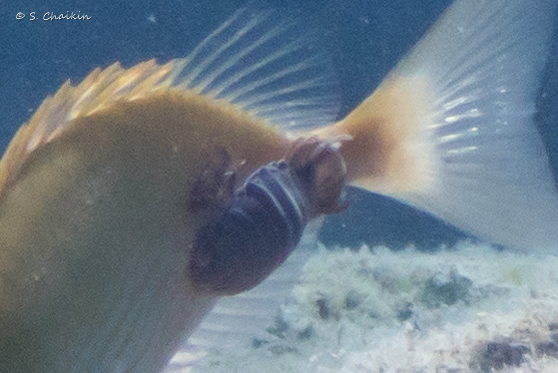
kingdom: Animalia
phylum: Arthropoda
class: Malacostraca
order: Isopoda
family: Cymothoidae
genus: Anilocra
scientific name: Anilocra physodes
